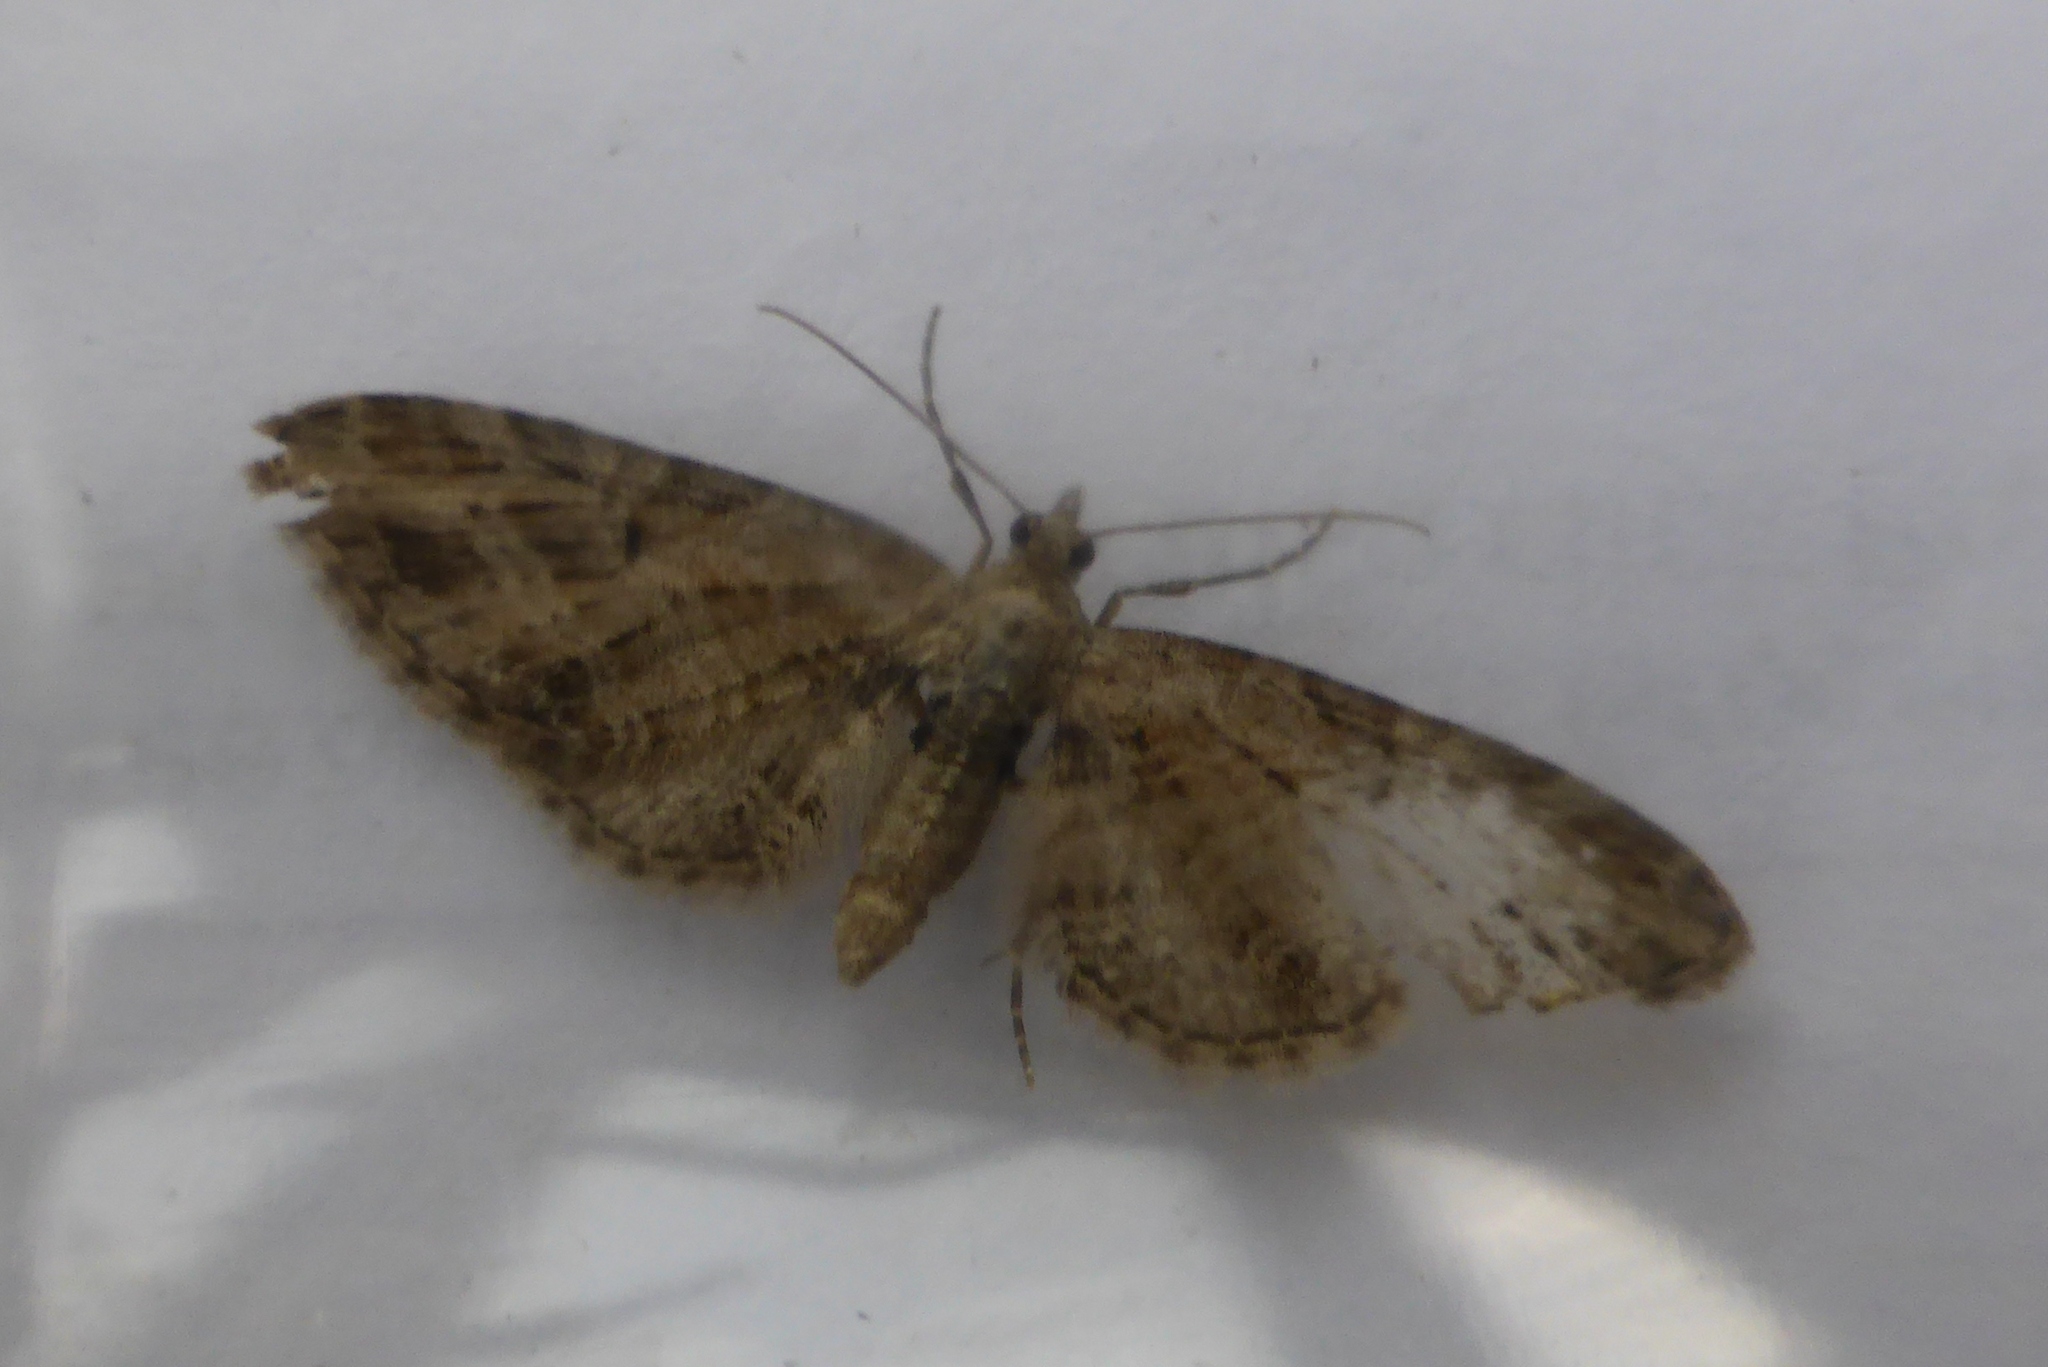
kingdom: Animalia
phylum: Arthropoda
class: Insecta
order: Lepidoptera
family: Geometridae
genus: Eupithecia
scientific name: Eupithecia exiguata
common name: Mottled pug
